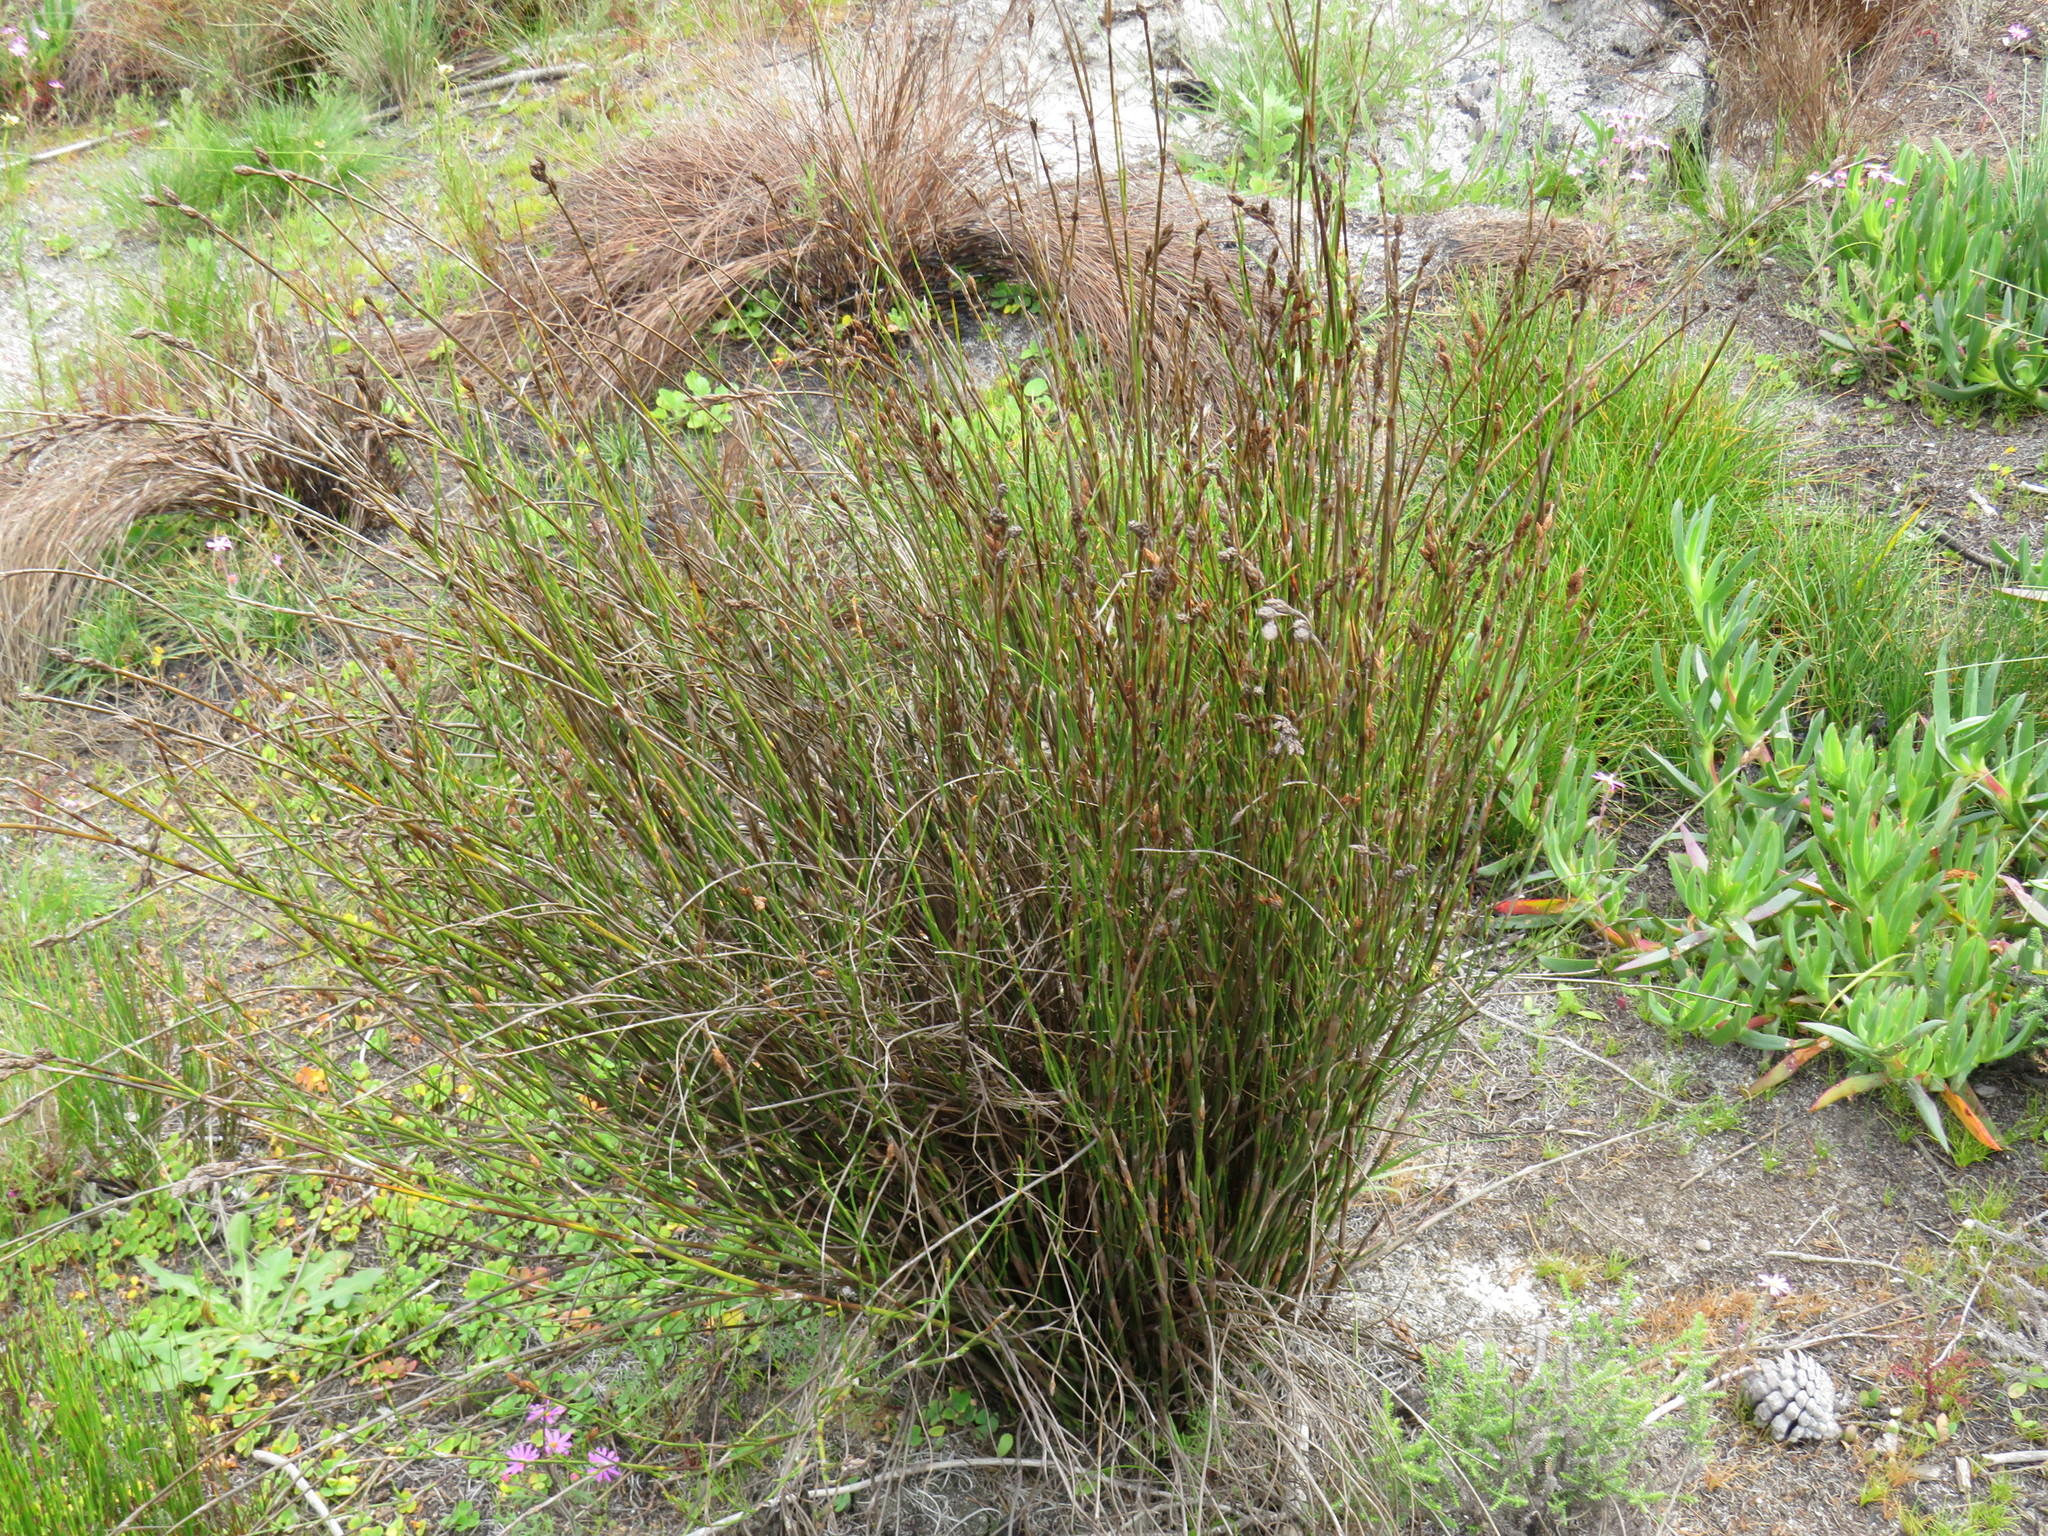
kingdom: Plantae
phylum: Tracheophyta
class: Liliopsida
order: Poales
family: Restionaceae
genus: Restio
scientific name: Restio bifurcus
